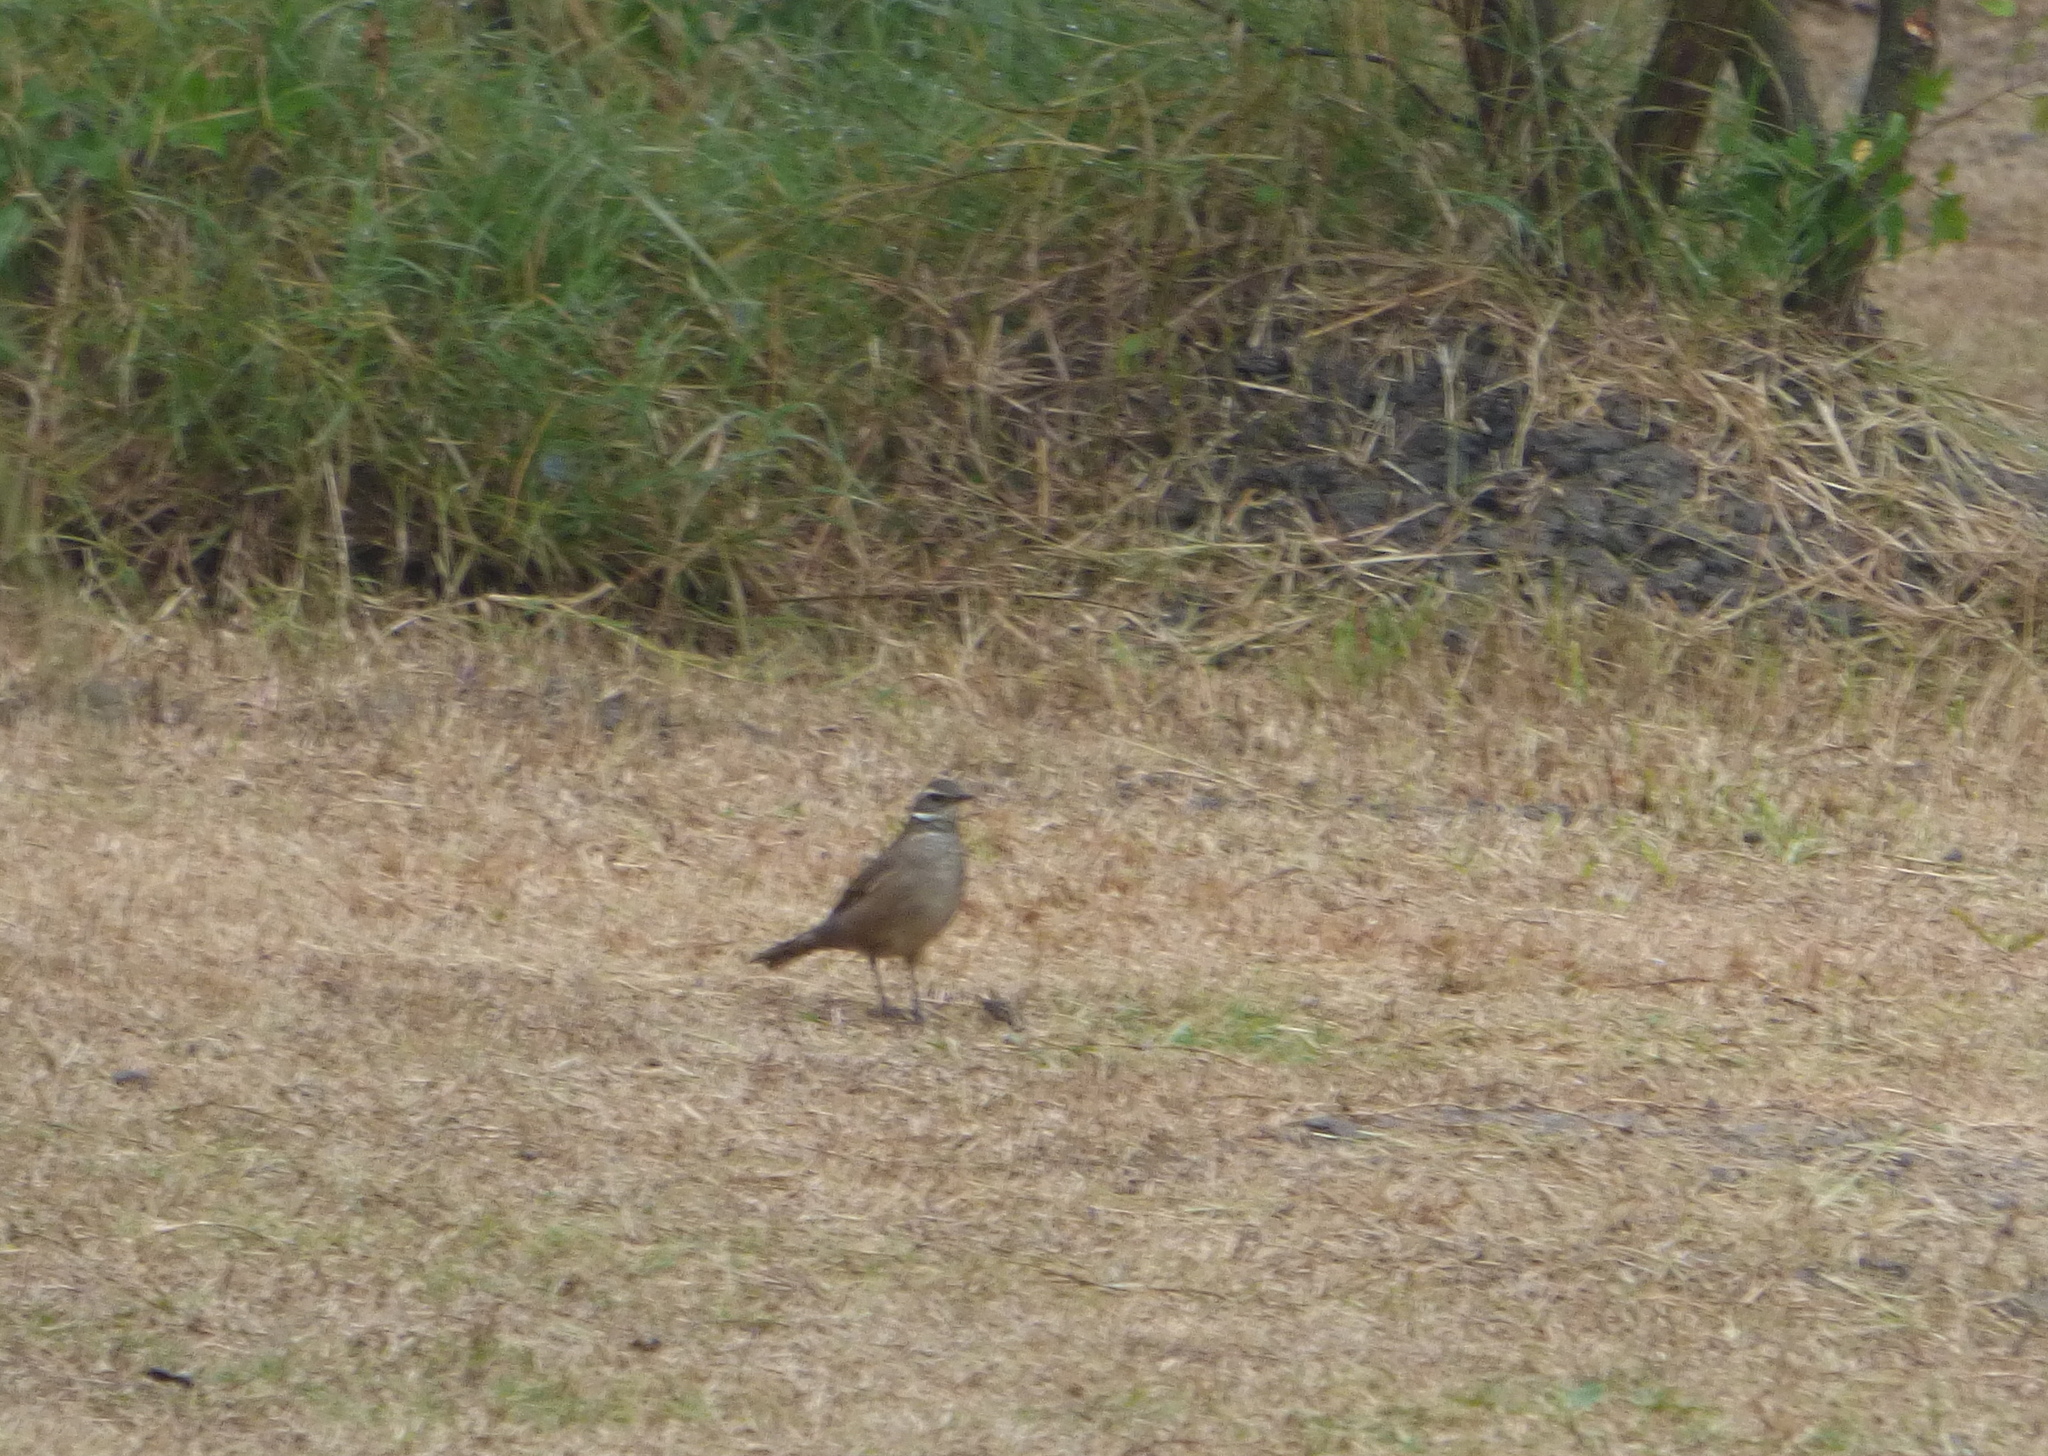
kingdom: Animalia
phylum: Chordata
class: Aves
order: Passeriformes
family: Furnariidae
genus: Cinclodes
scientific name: Cinclodes fuscus
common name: Buff-winged cinclodes
